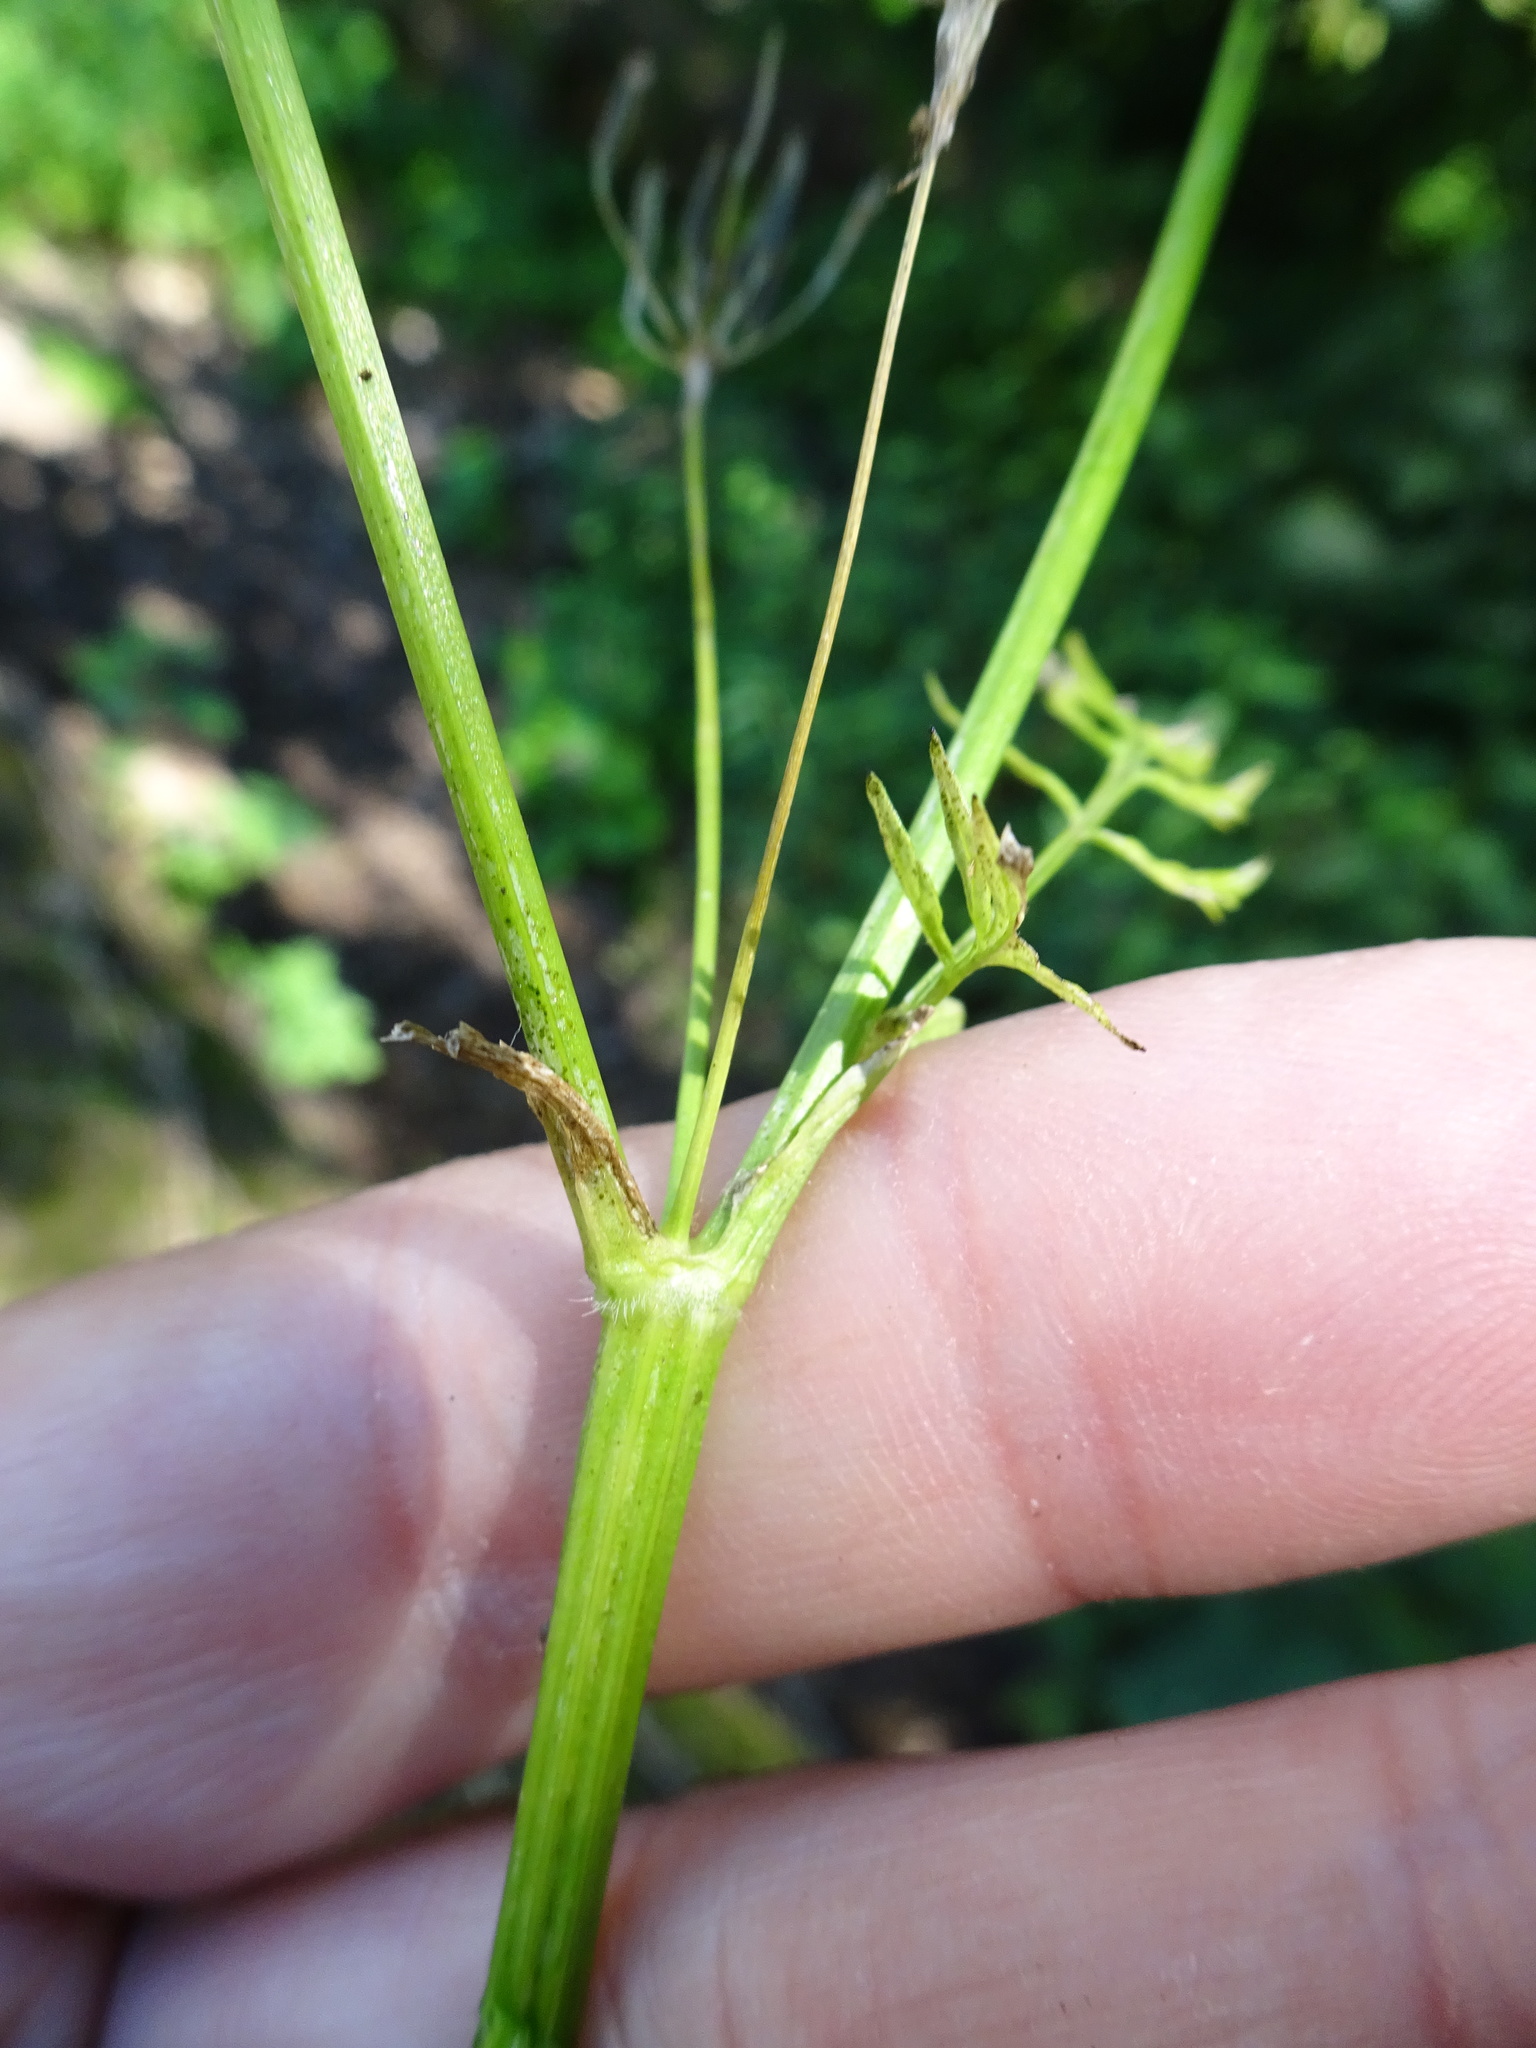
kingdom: Plantae
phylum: Tracheophyta
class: Magnoliopsida
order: Apiales
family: Apiaceae
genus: Anthriscus
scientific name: Anthriscus sylvestris
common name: Cow parsley
